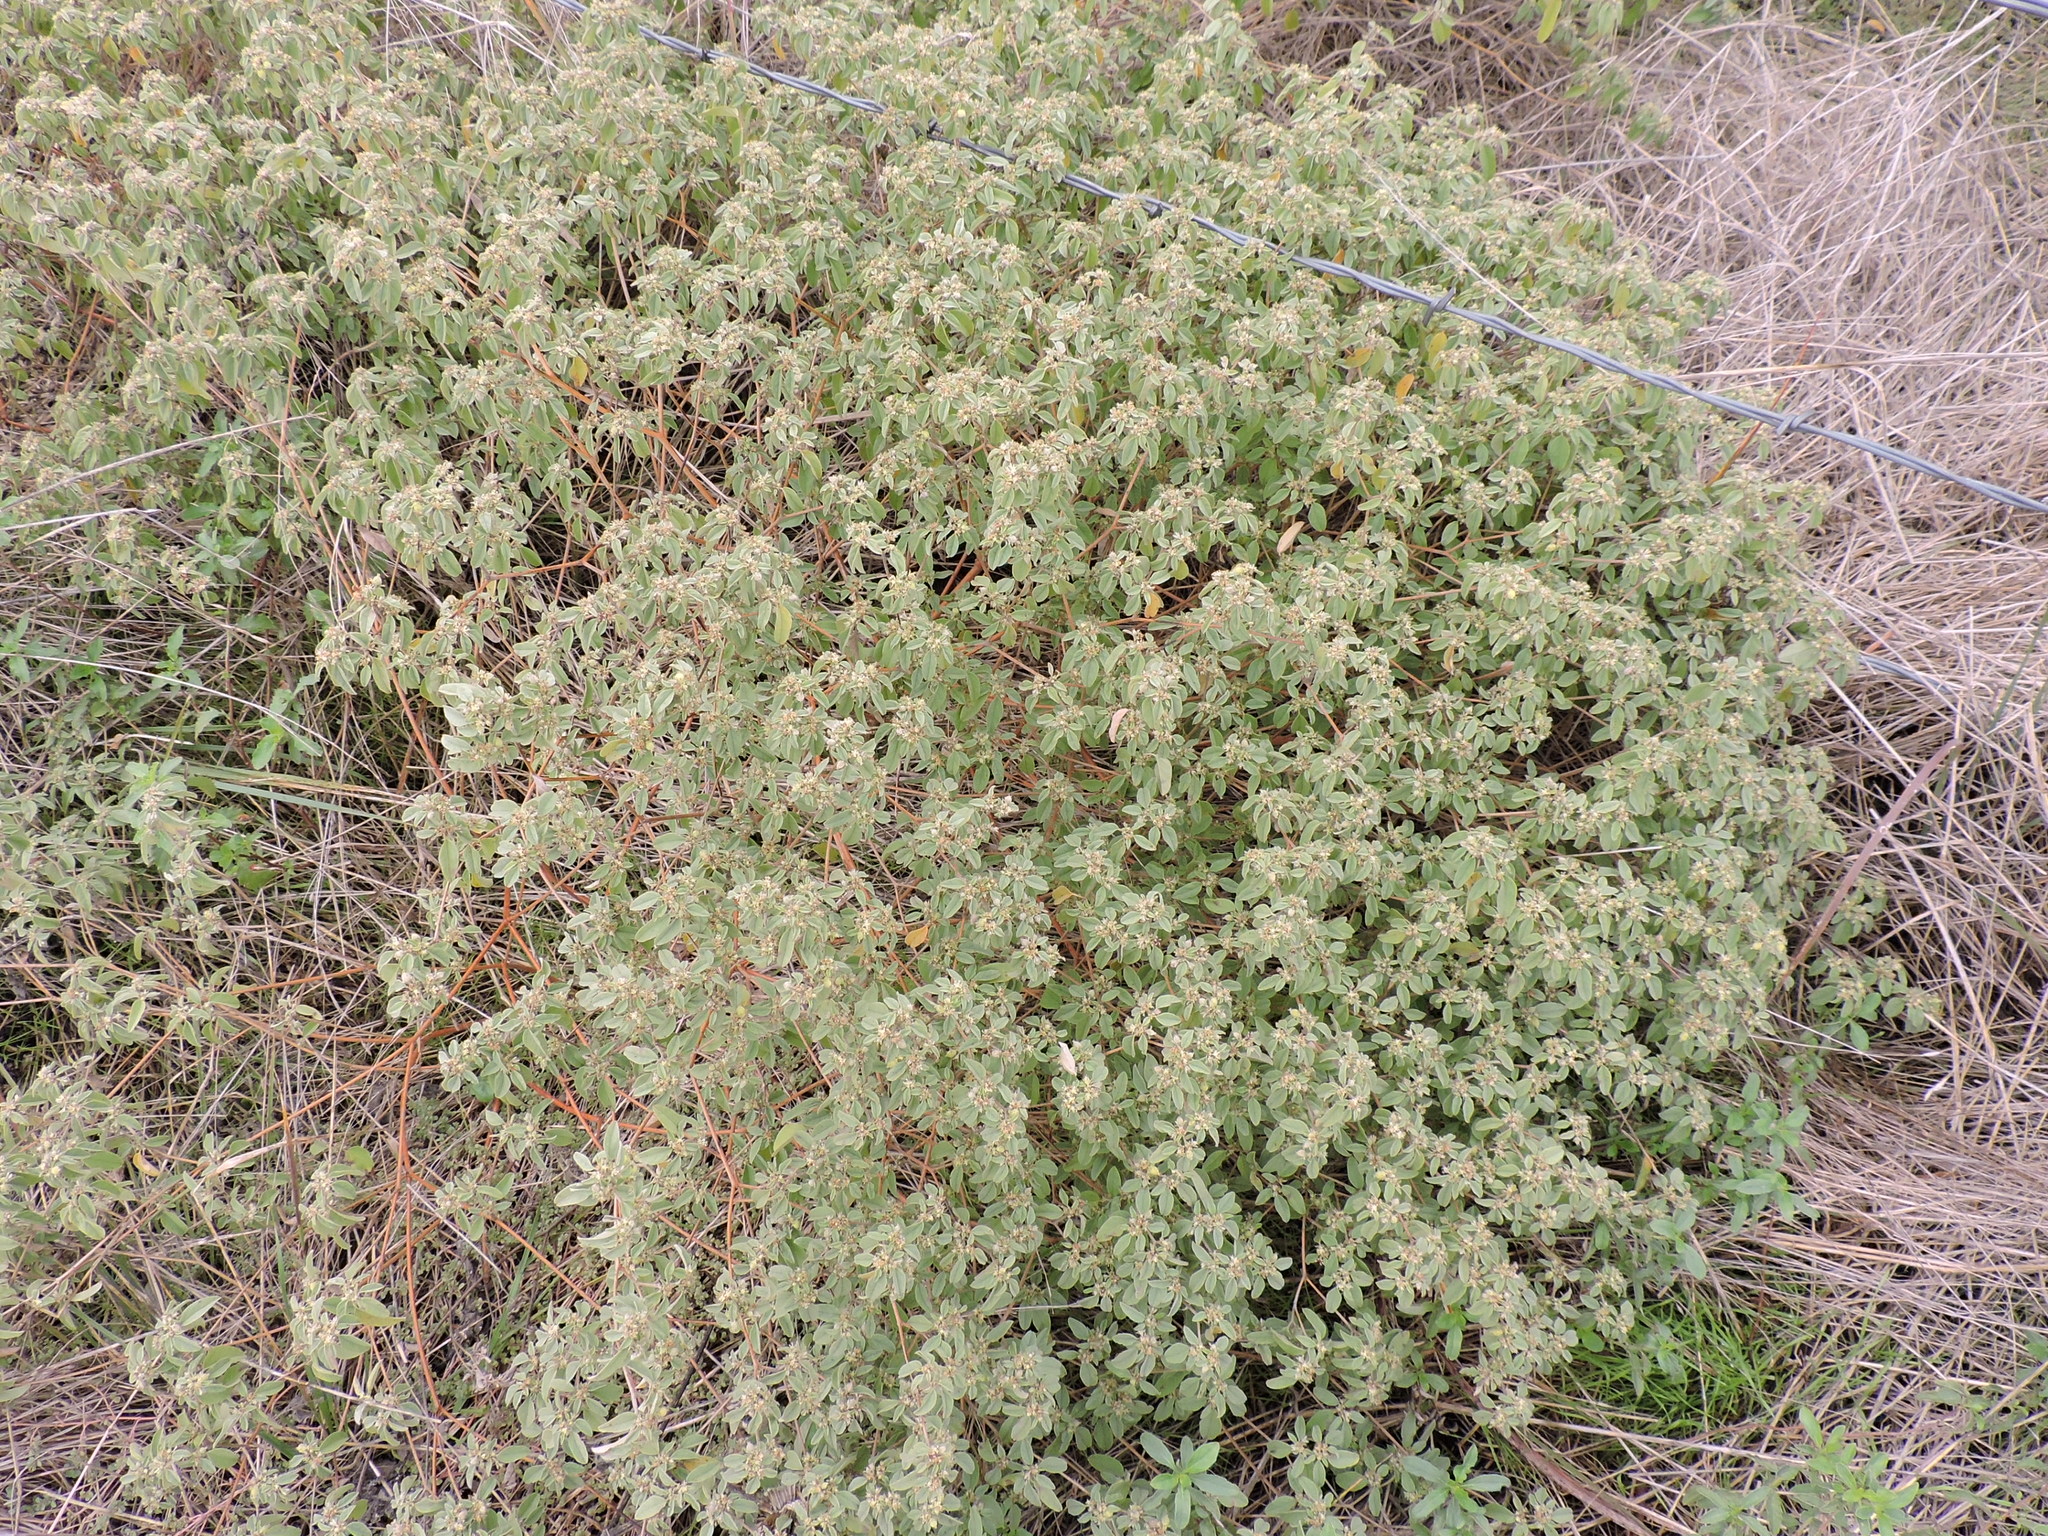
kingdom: Plantae
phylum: Tracheophyta
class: Magnoliopsida
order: Malpighiales
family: Euphorbiaceae
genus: Croton
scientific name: Croton monanthogynus
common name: One-seed croton
